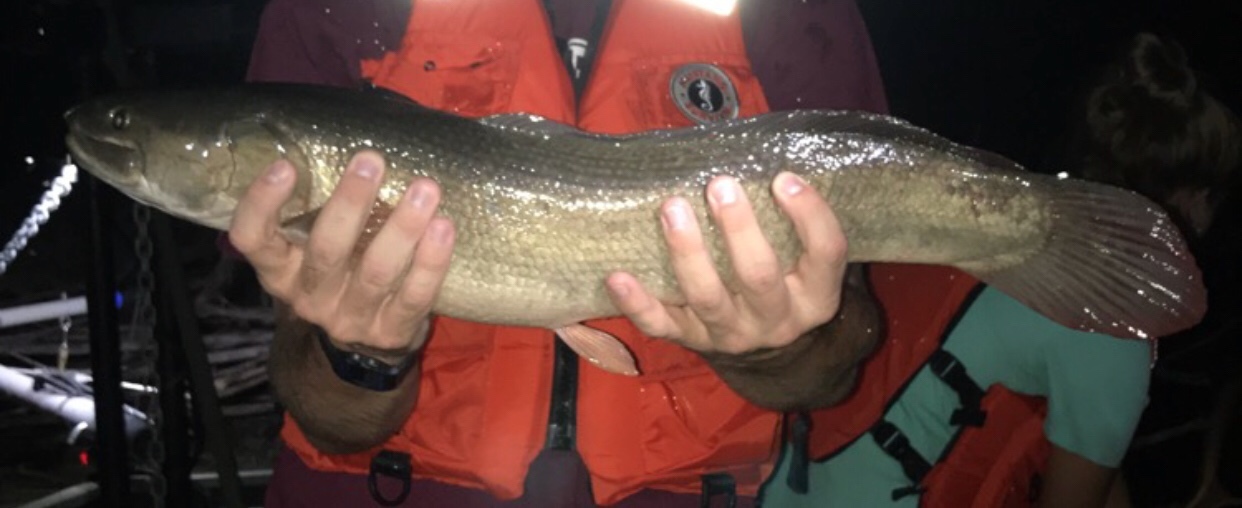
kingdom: Animalia
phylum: Chordata
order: Amiiformes
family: Amiidae
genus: Amia
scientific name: Amia calva
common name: Bowfin
